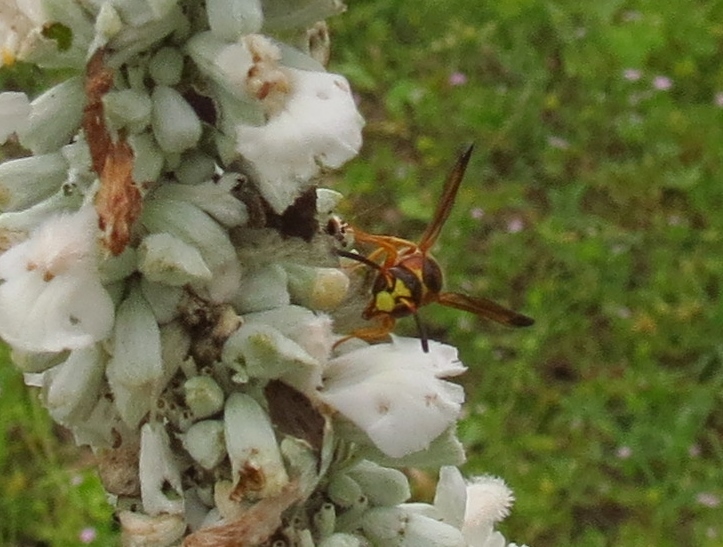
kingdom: Animalia
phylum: Arthropoda
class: Insecta
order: Hymenoptera
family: Eumenidae
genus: Euodynerus
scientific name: Euodynerus pratensis
